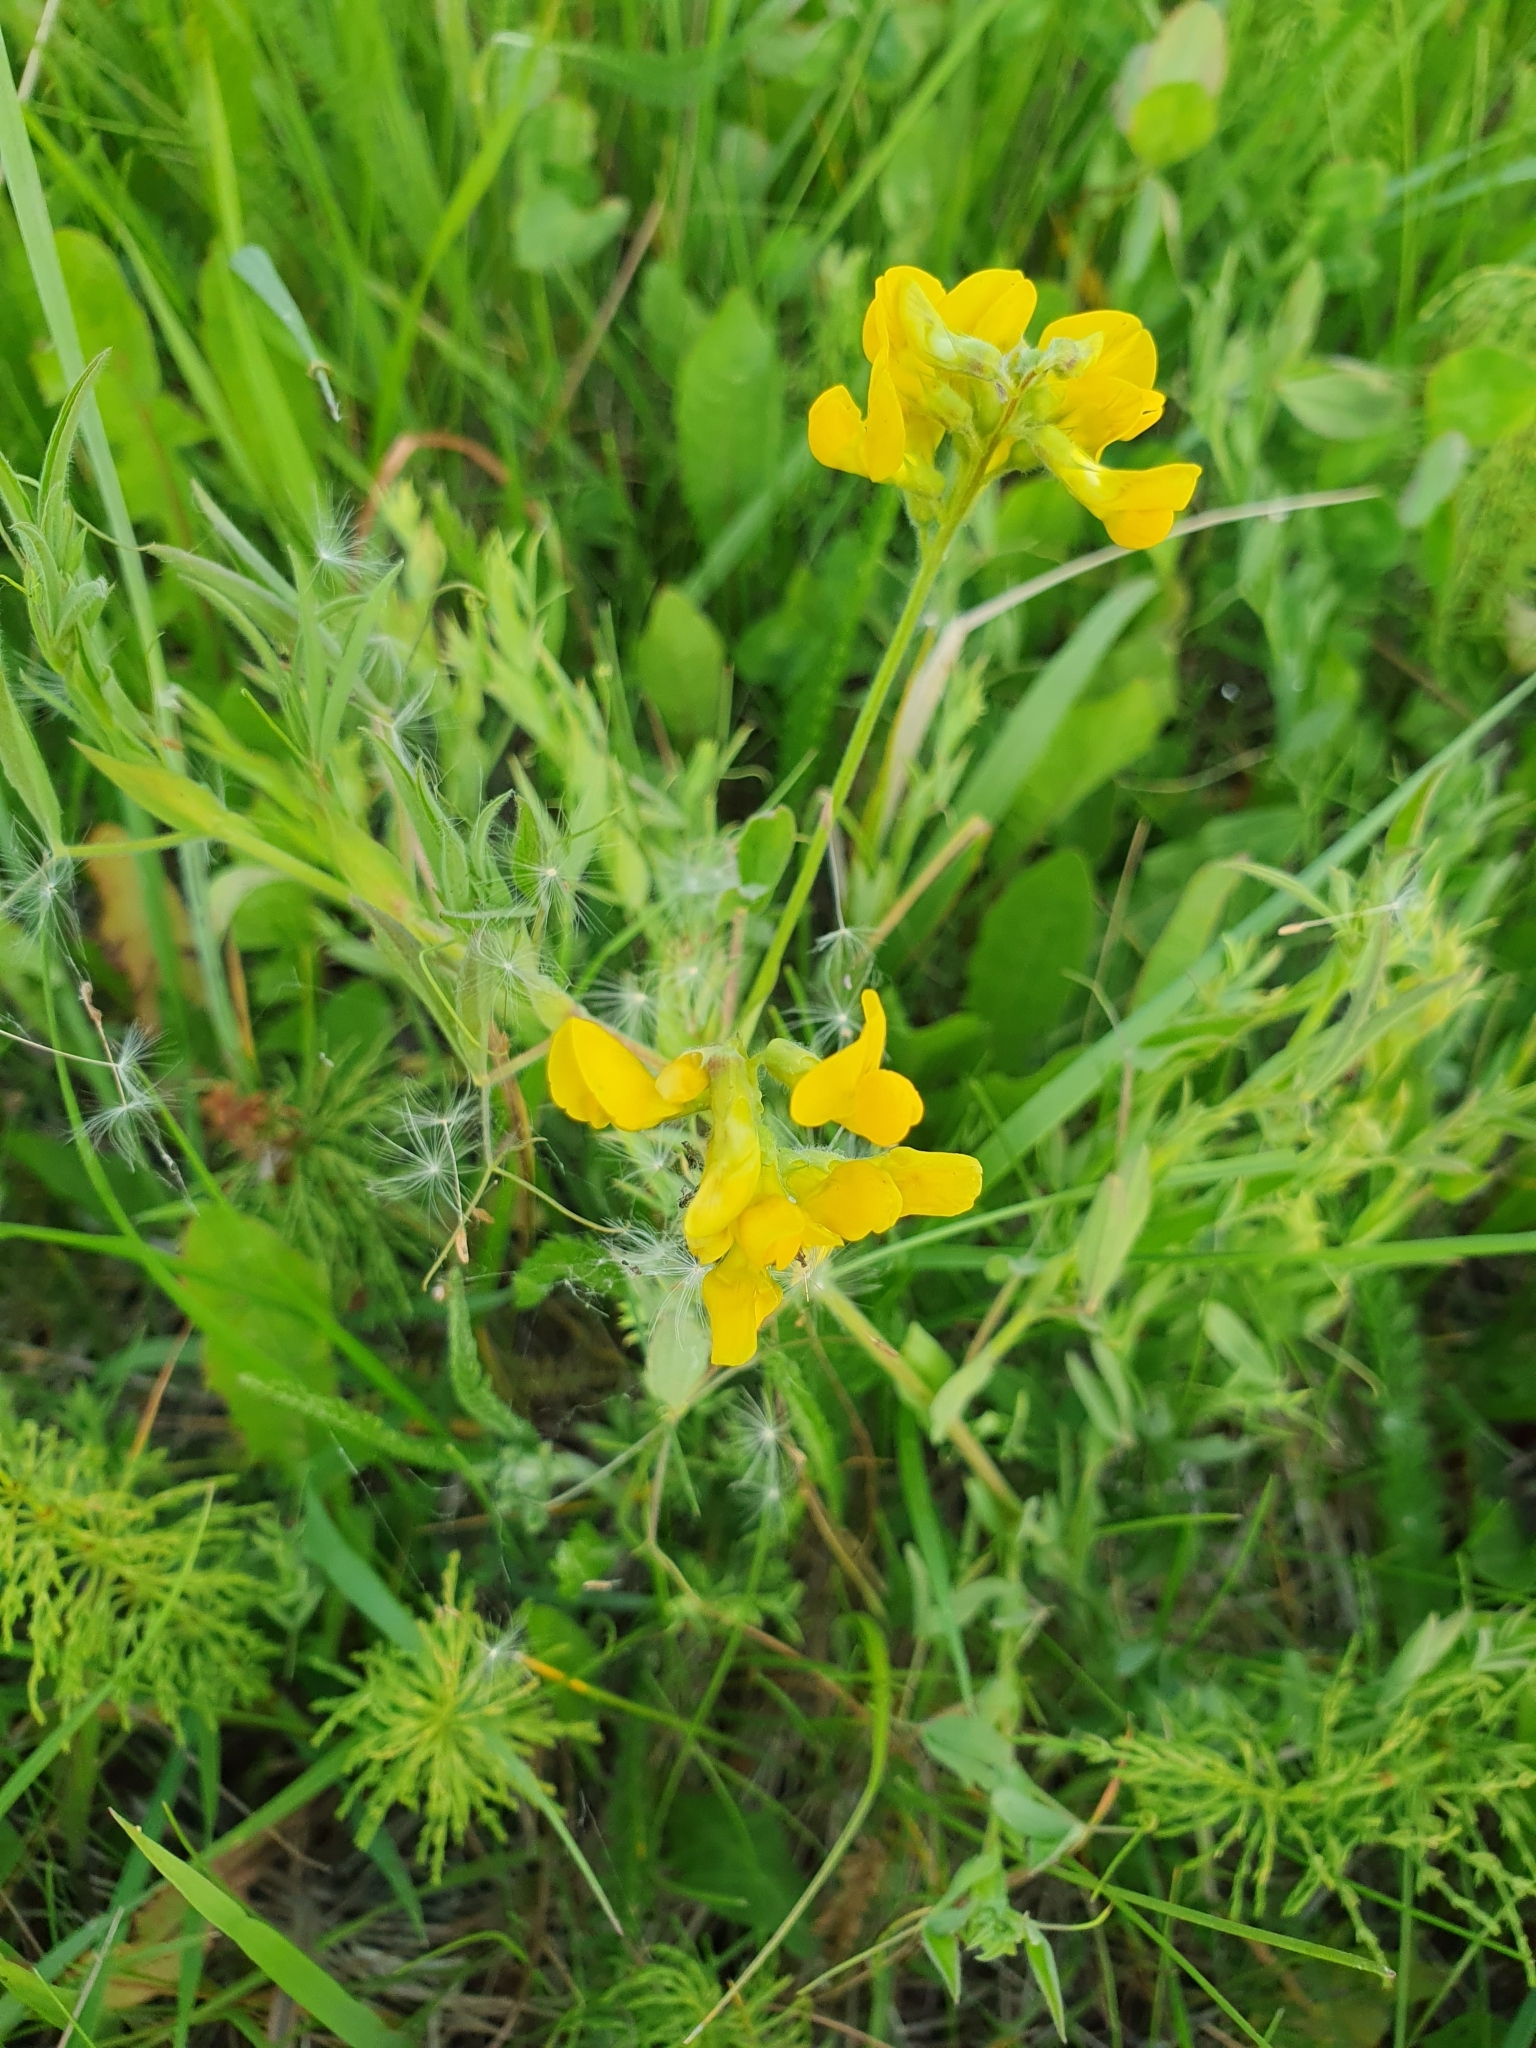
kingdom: Plantae
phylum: Tracheophyta
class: Magnoliopsida
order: Fabales
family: Fabaceae
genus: Lathyrus
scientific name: Lathyrus pratensis
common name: Meadow vetchling
